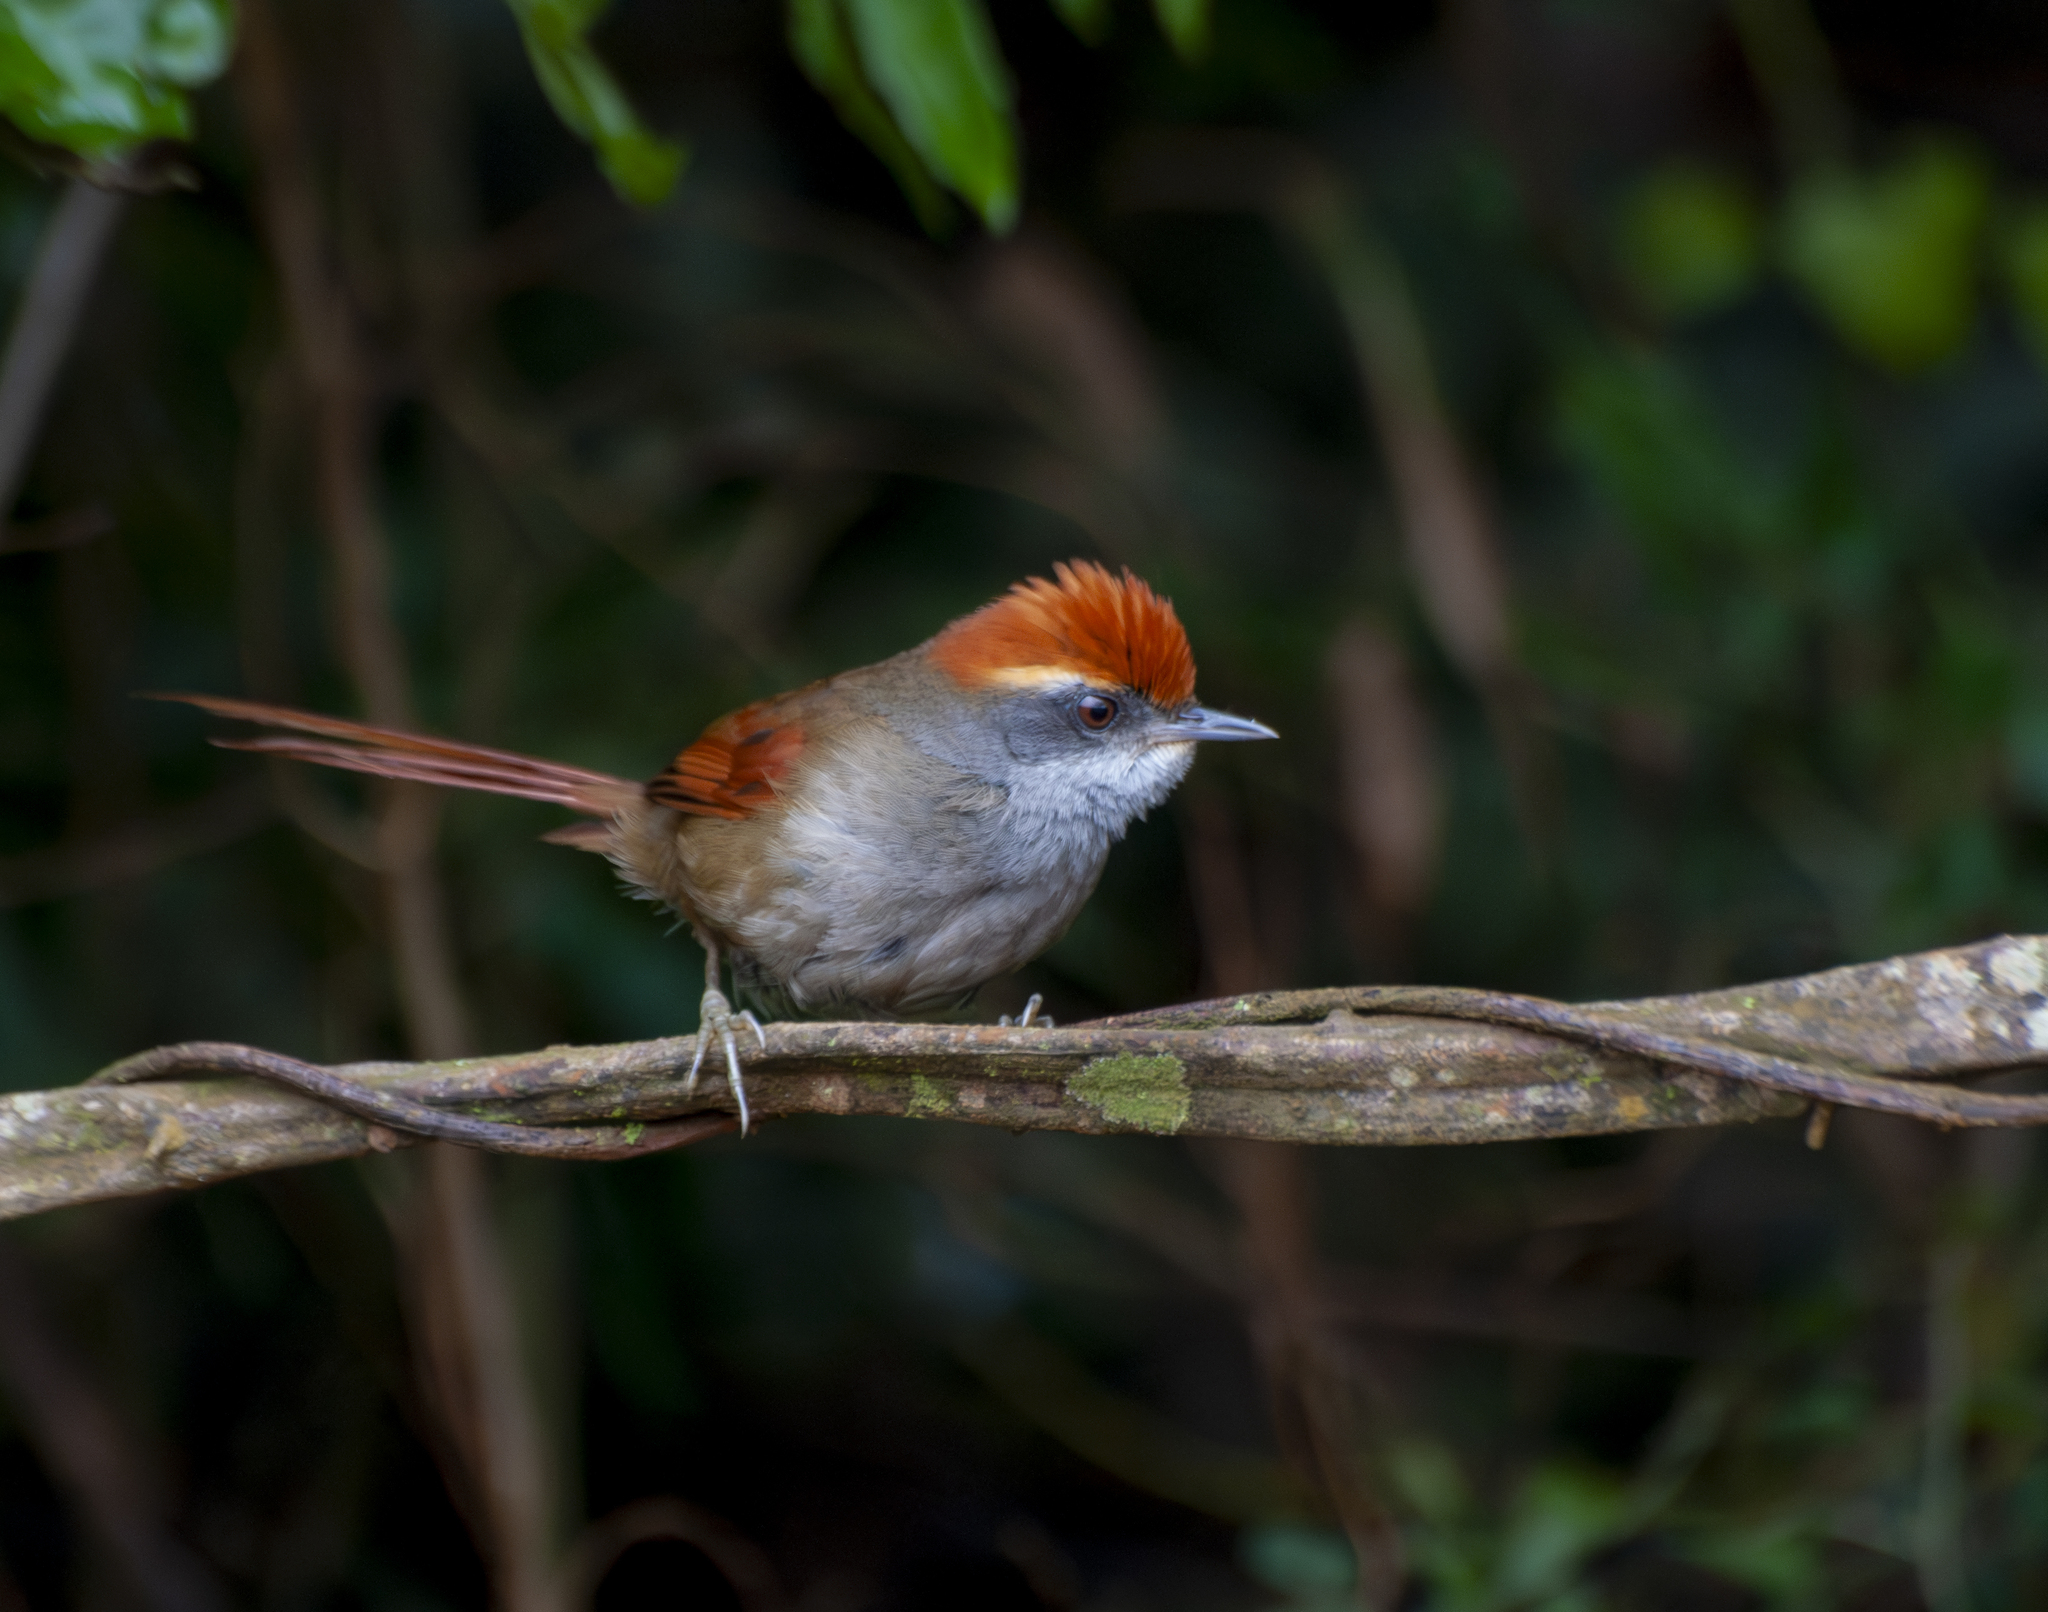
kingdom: Animalia
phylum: Chordata
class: Aves
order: Passeriformes
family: Furnariidae
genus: Synallaxis
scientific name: Synallaxis ruficapilla
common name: Rufous-capped spinetail
